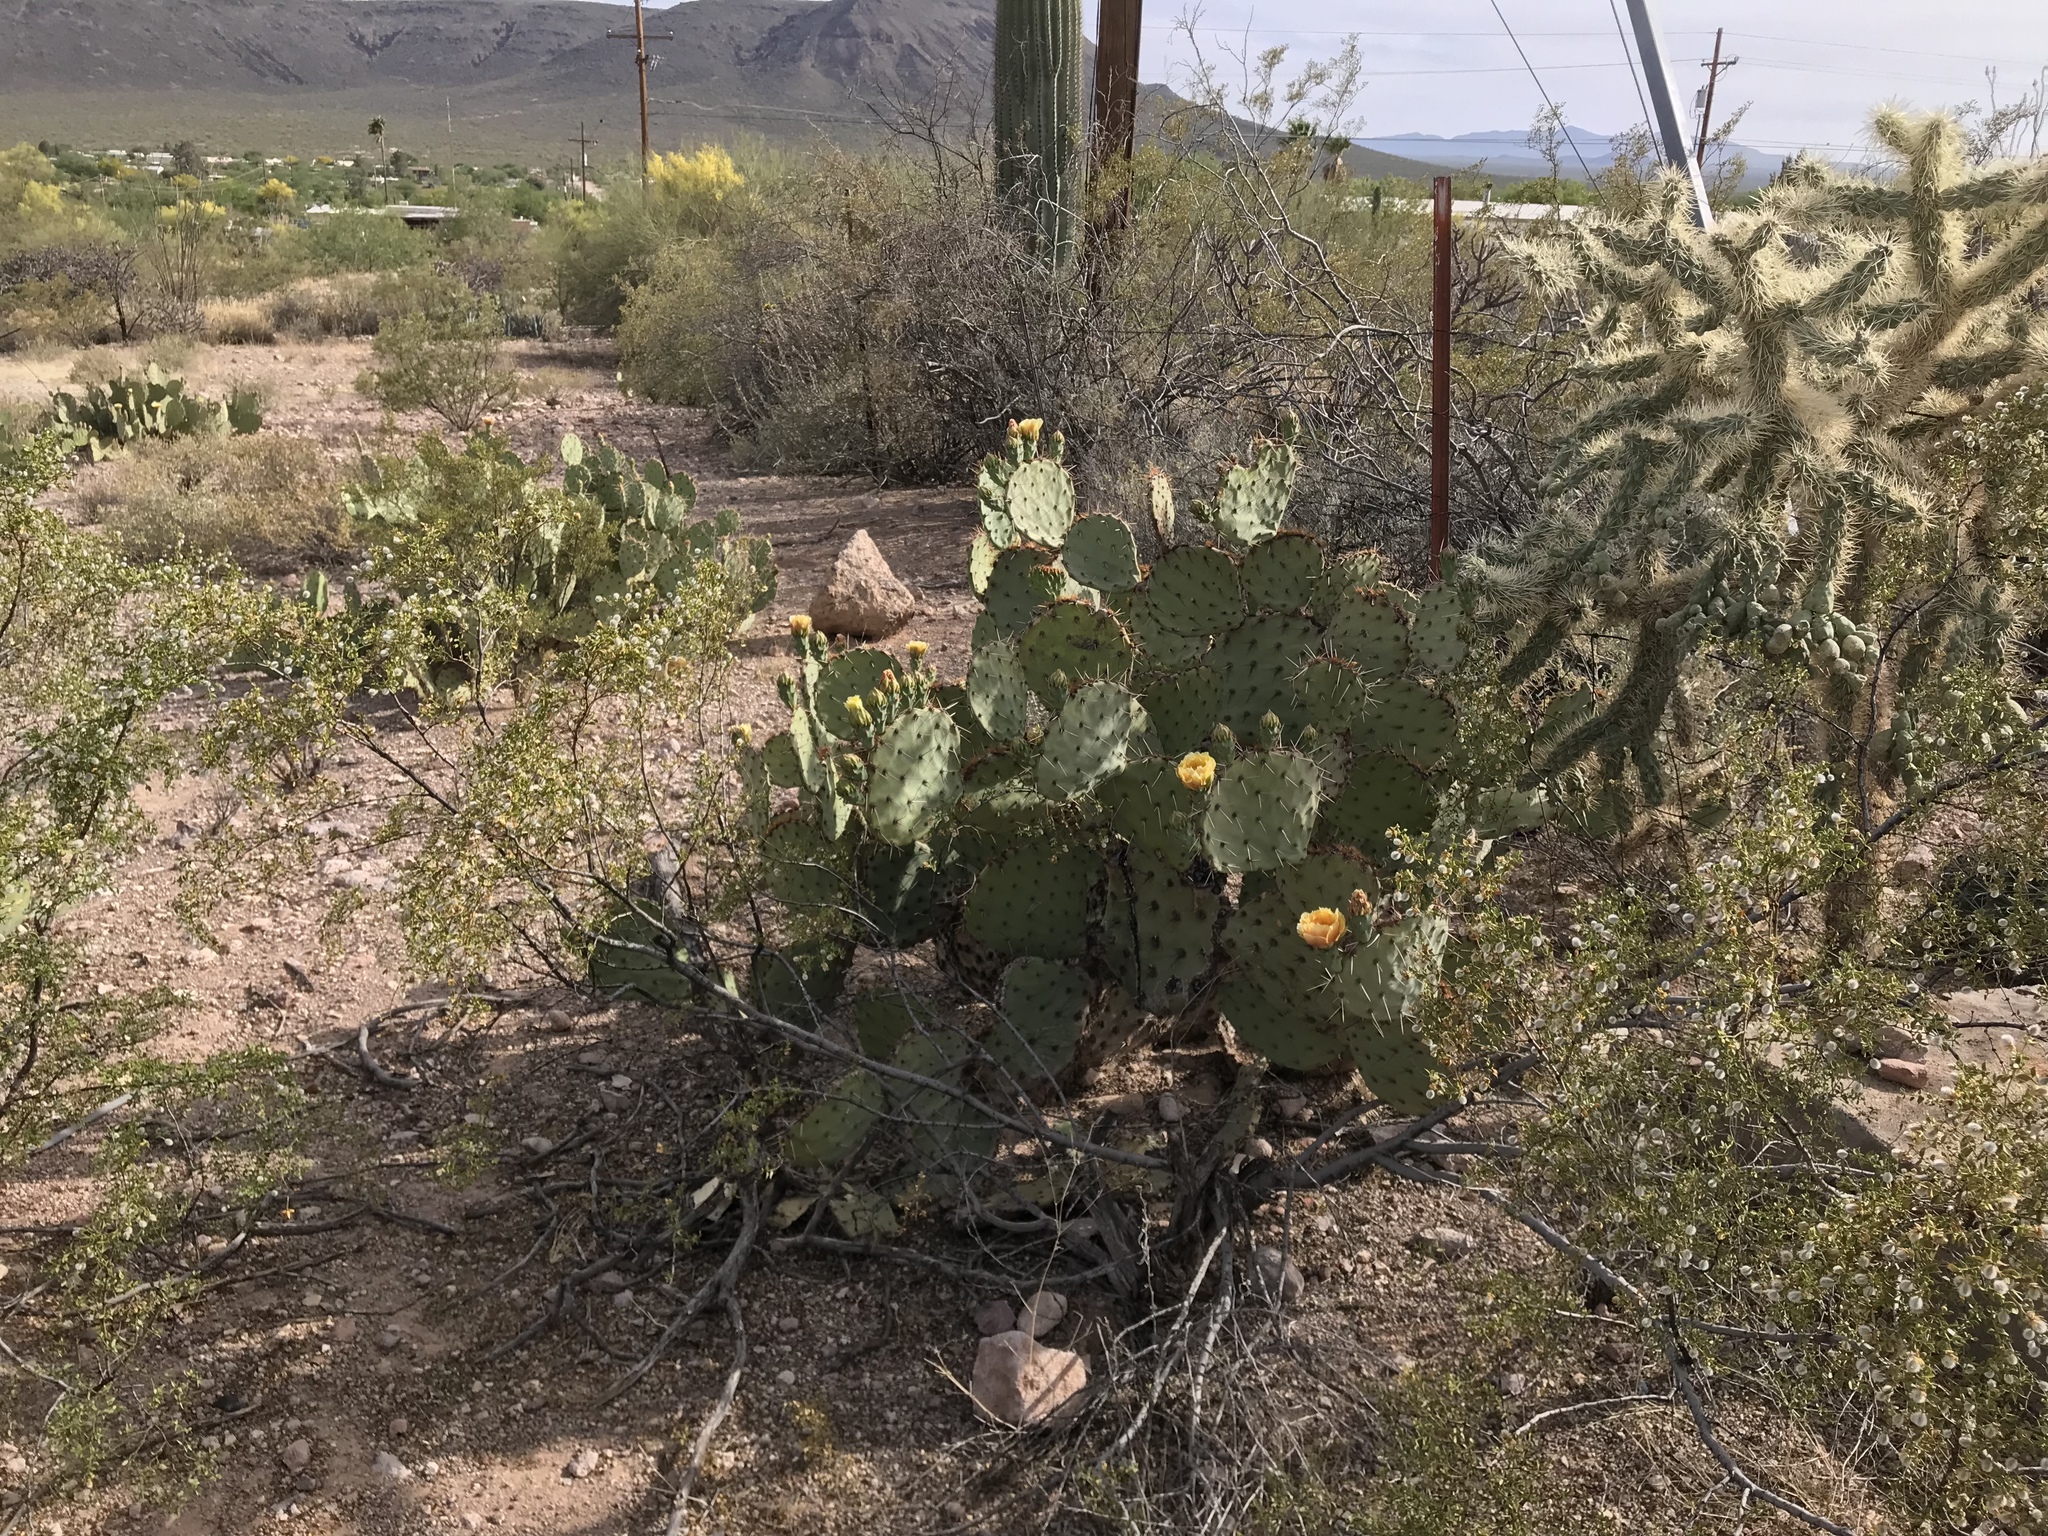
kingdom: Plantae
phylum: Tracheophyta
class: Magnoliopsida
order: Caryophyllales
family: Cactaceae
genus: Opuntia
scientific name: Opuntia engelmannii
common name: Cactus-apple
